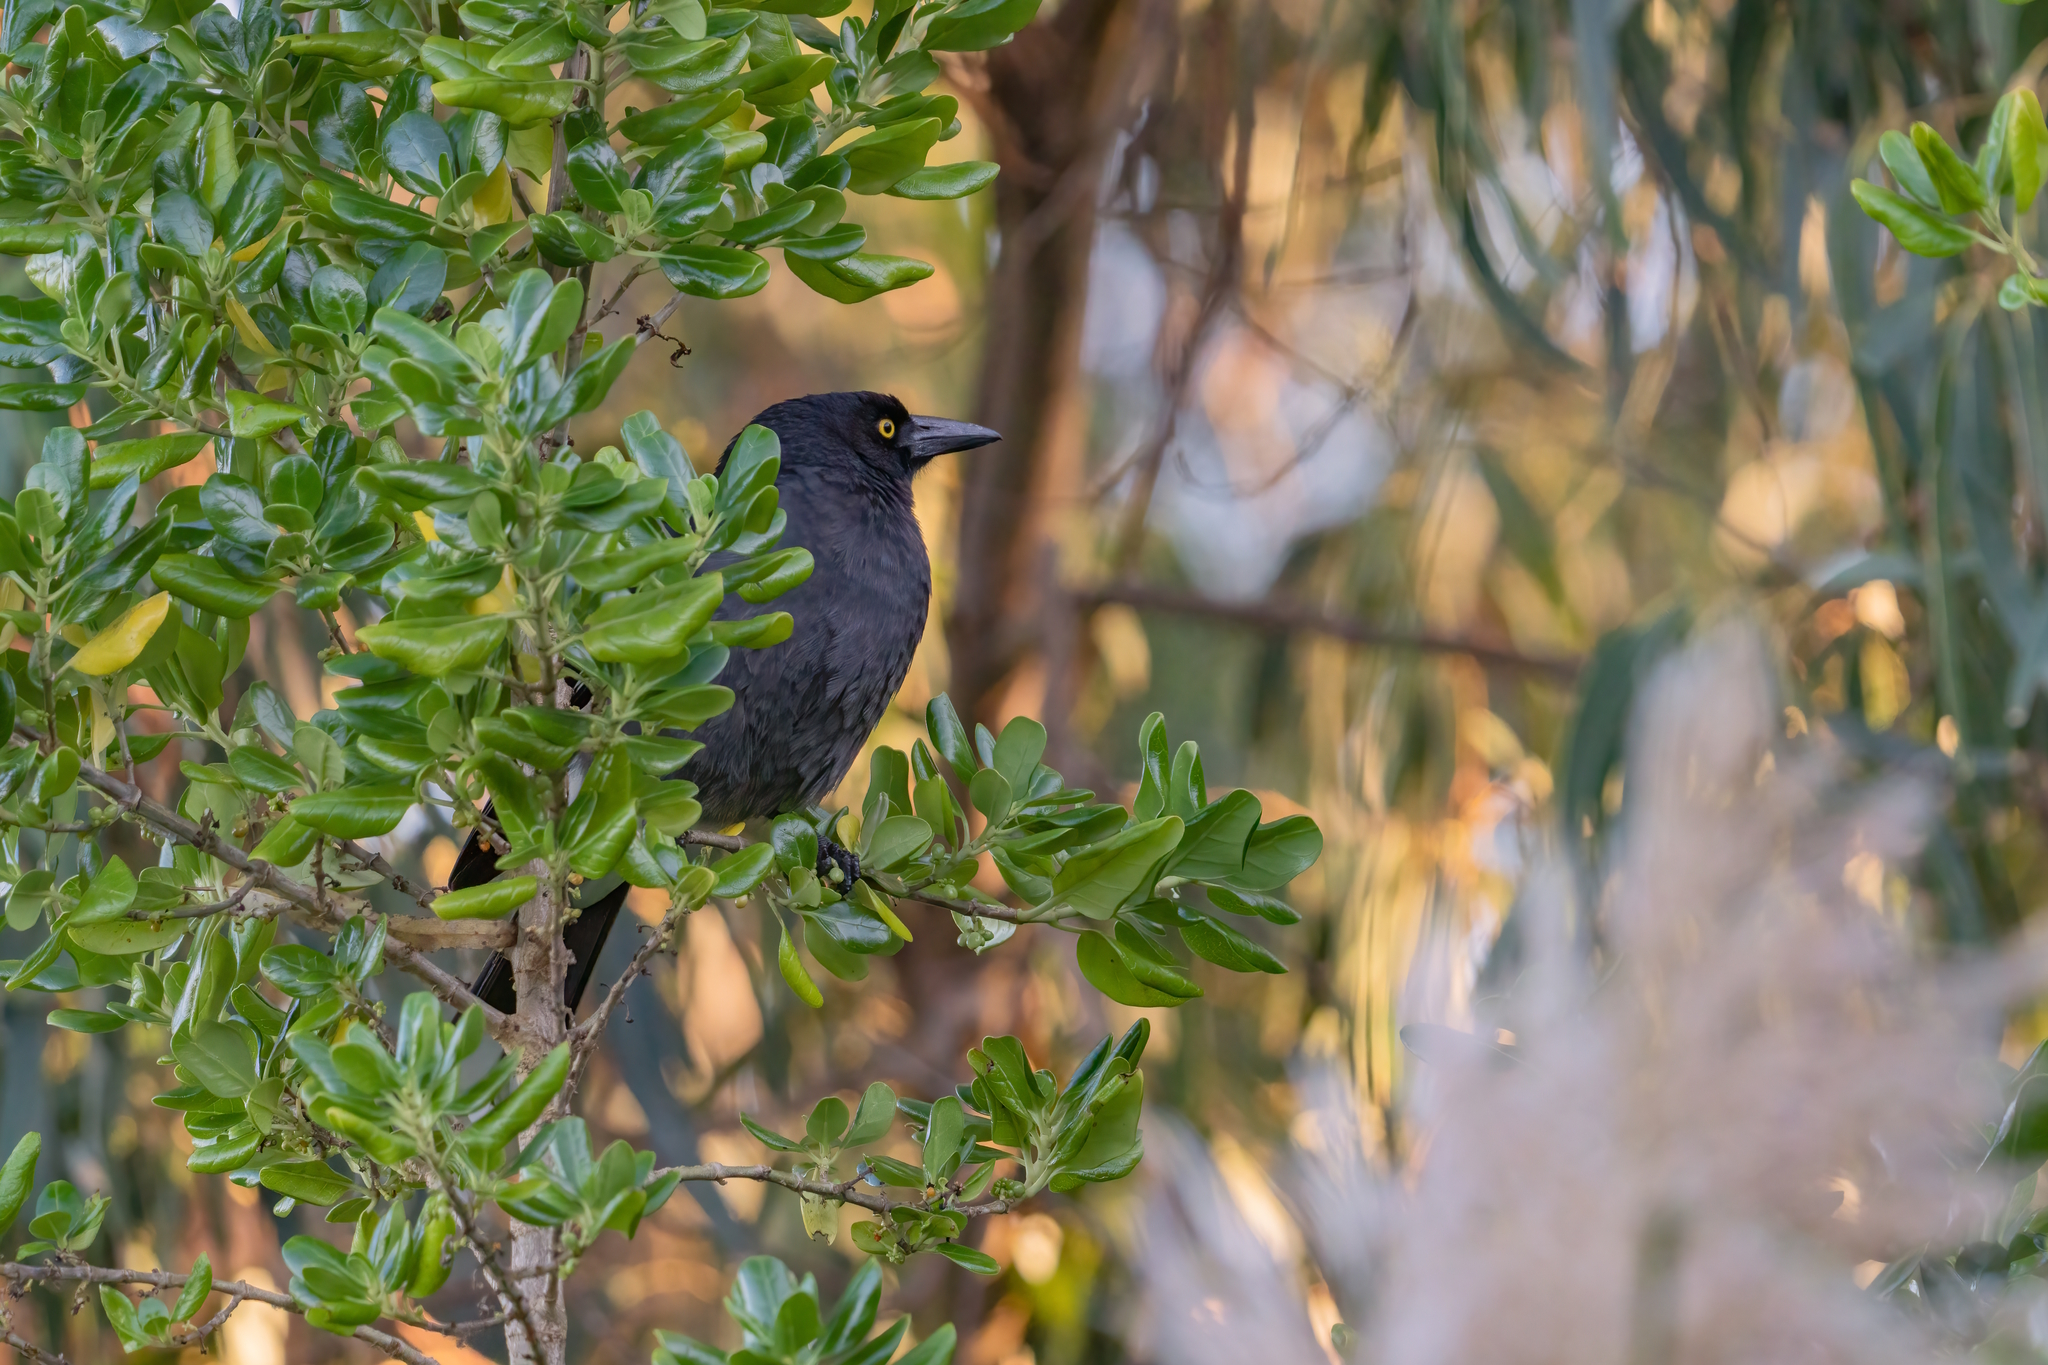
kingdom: Animalia
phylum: Chordata
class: Aves
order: Passeriformes
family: Cracticidae
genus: Strepera
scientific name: Strepera graculina
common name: Pied currawong
